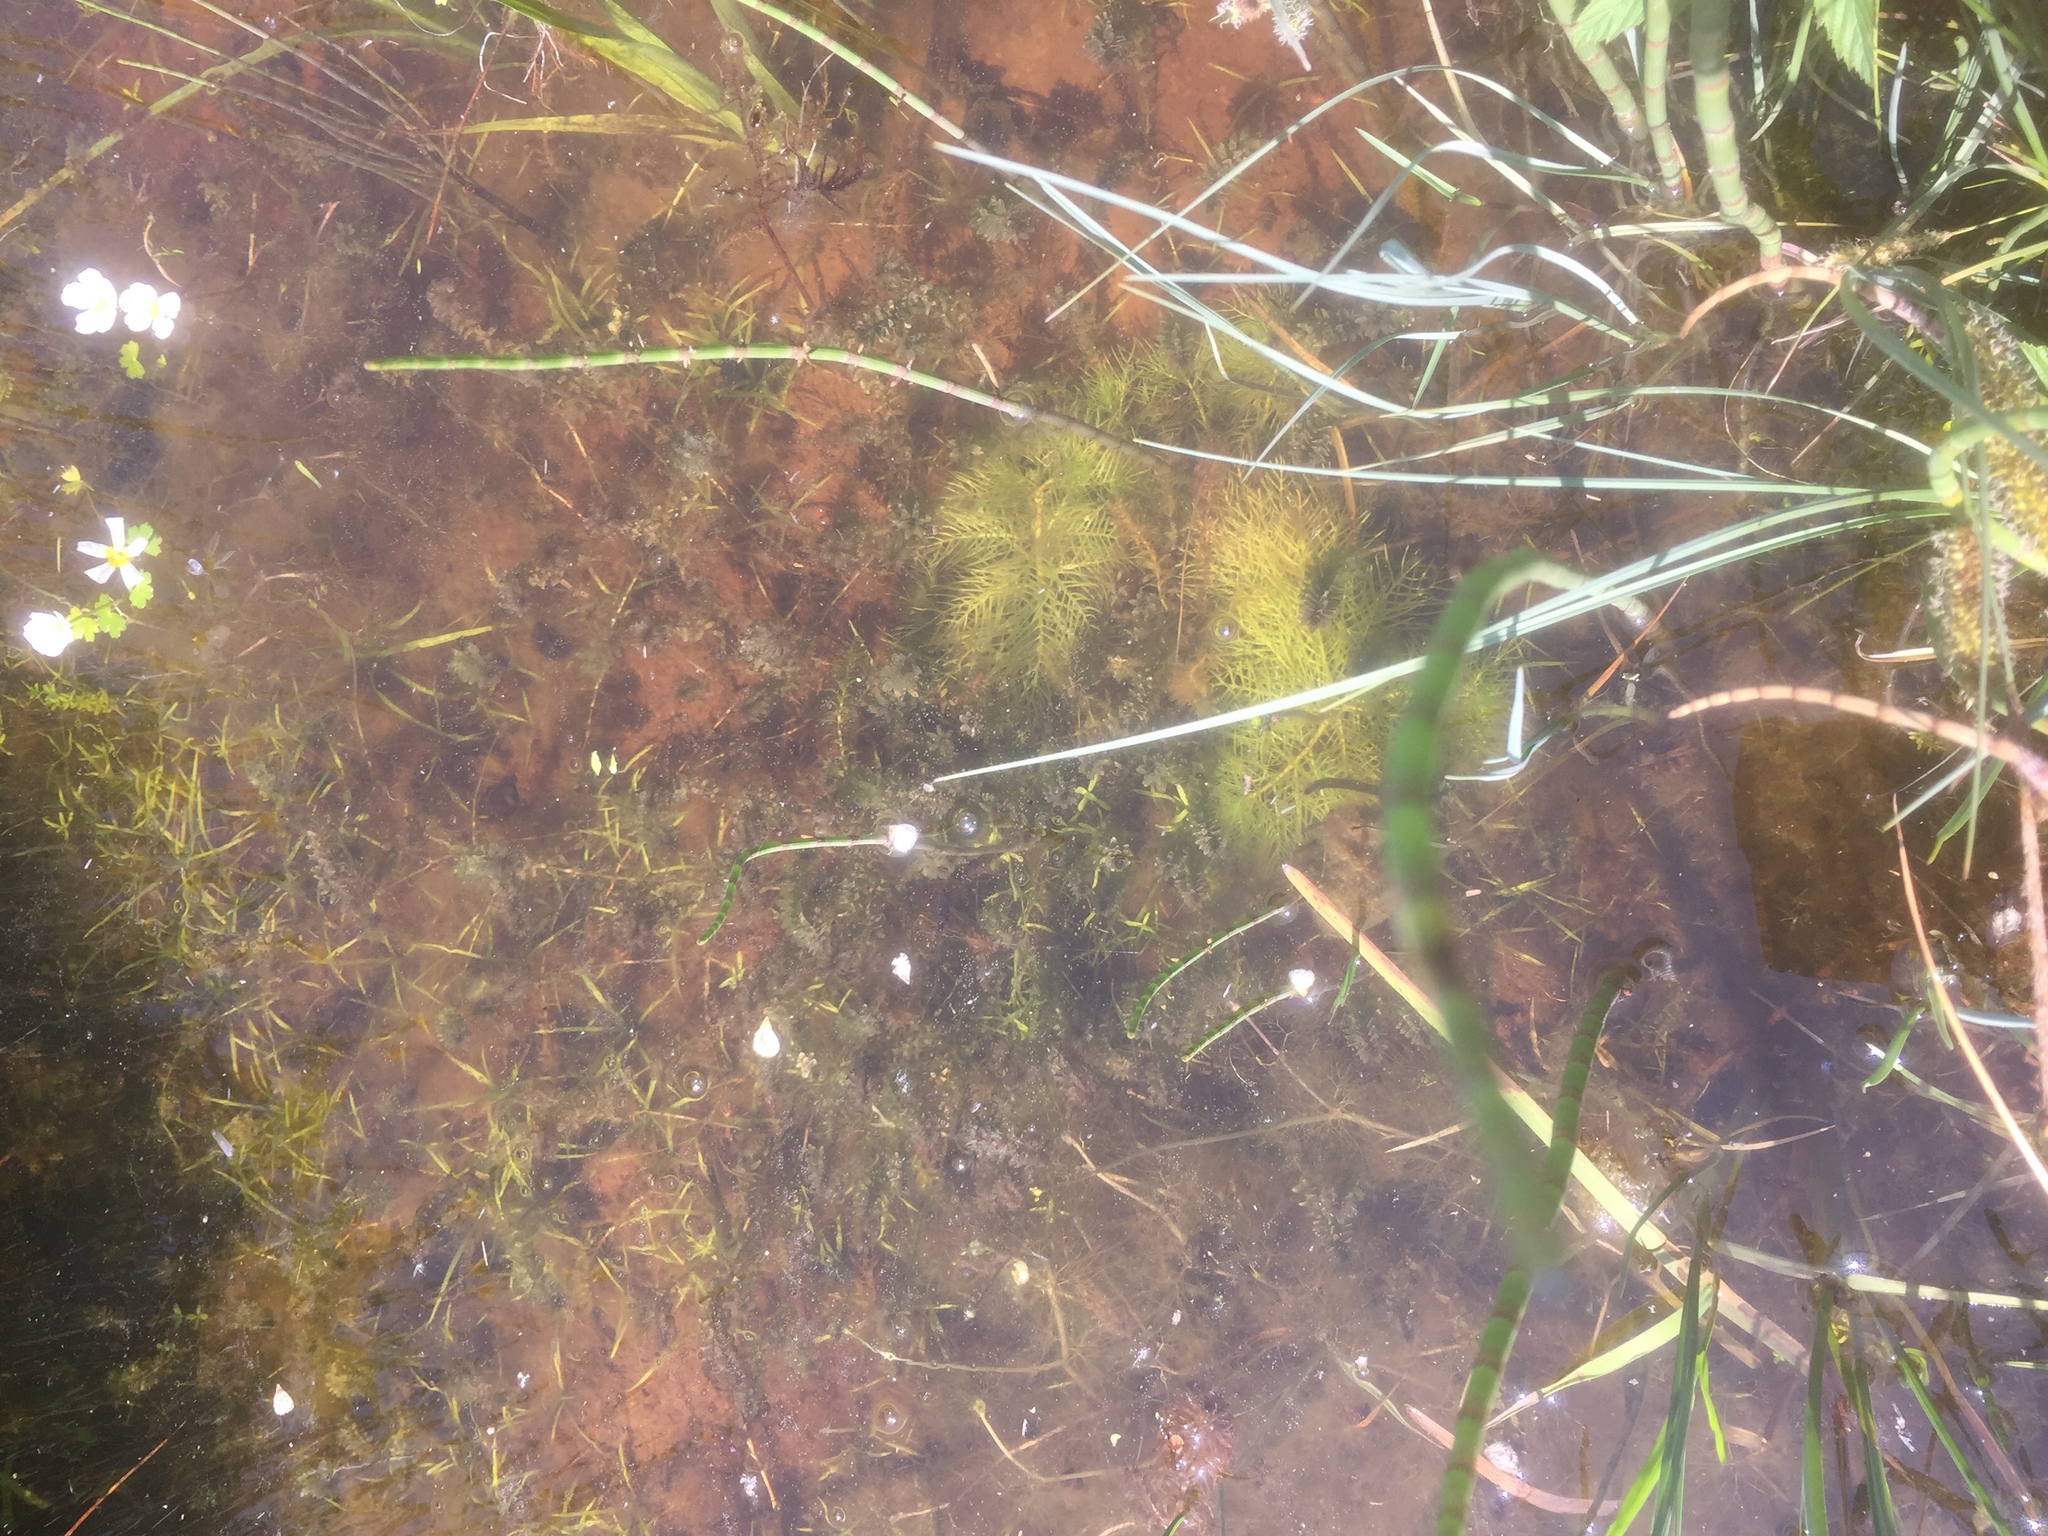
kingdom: Plantae
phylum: Tracheophyta
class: Liliopsida
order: Alismatales
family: Hydrocharitaceae
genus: Elodea
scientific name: Elodea canadensis
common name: Canadian waterweed
